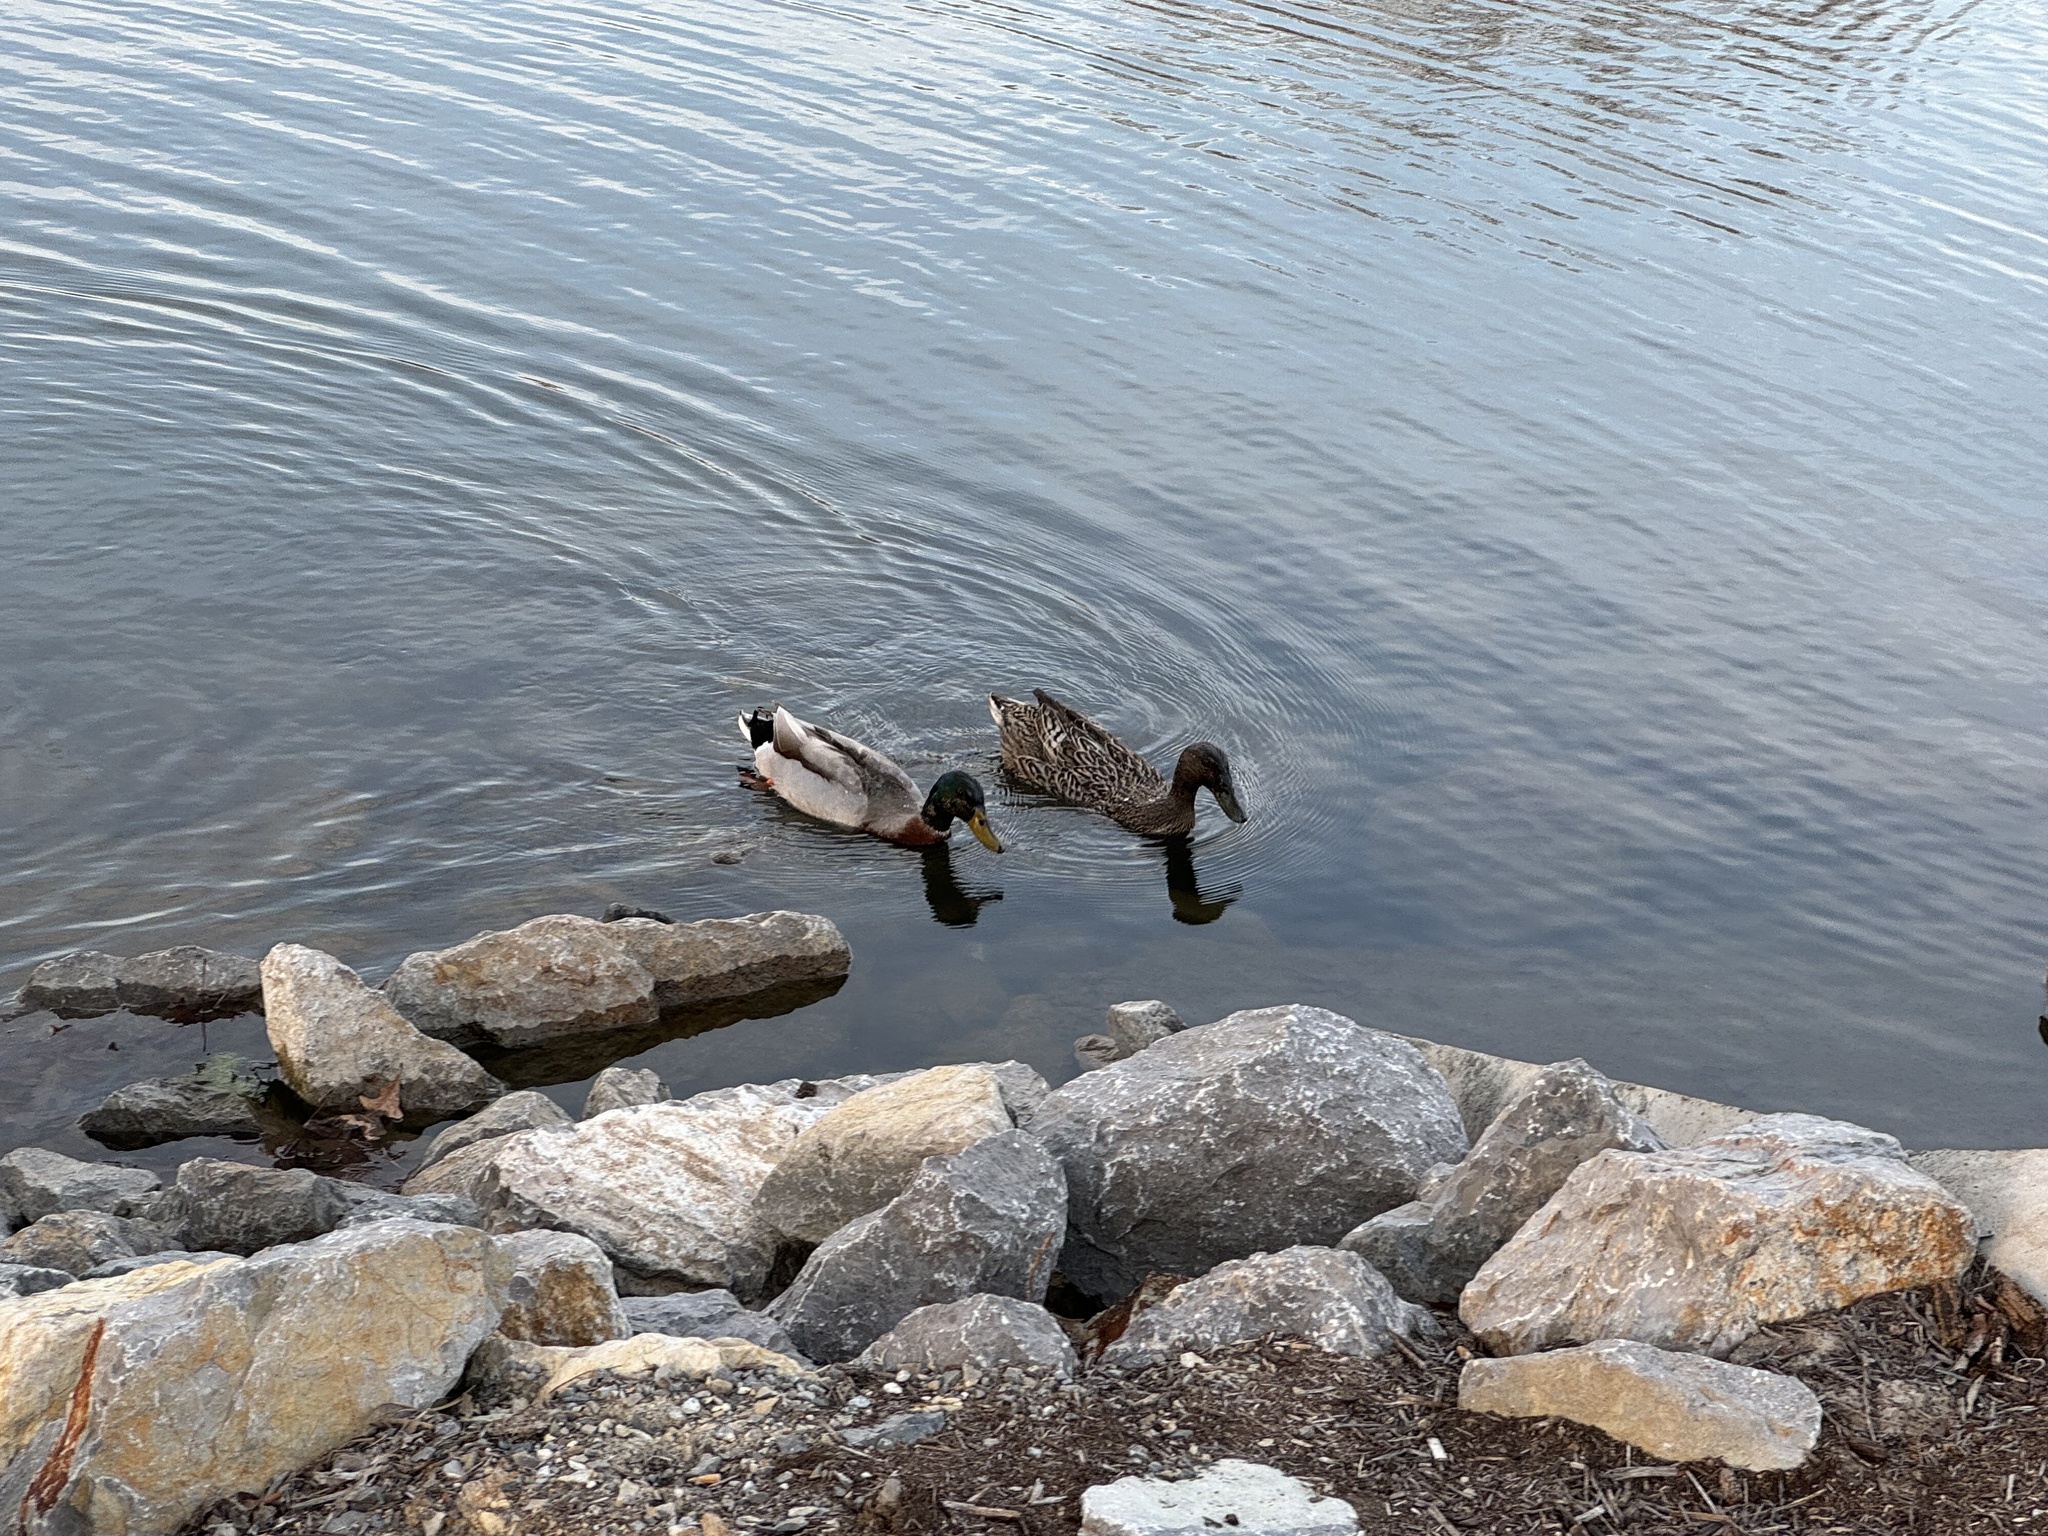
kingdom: Animalia
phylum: Chordata
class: Aves
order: Anseriformes
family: Anatidae
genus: Anas
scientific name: Anas platyrhynchos
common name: Mallard
